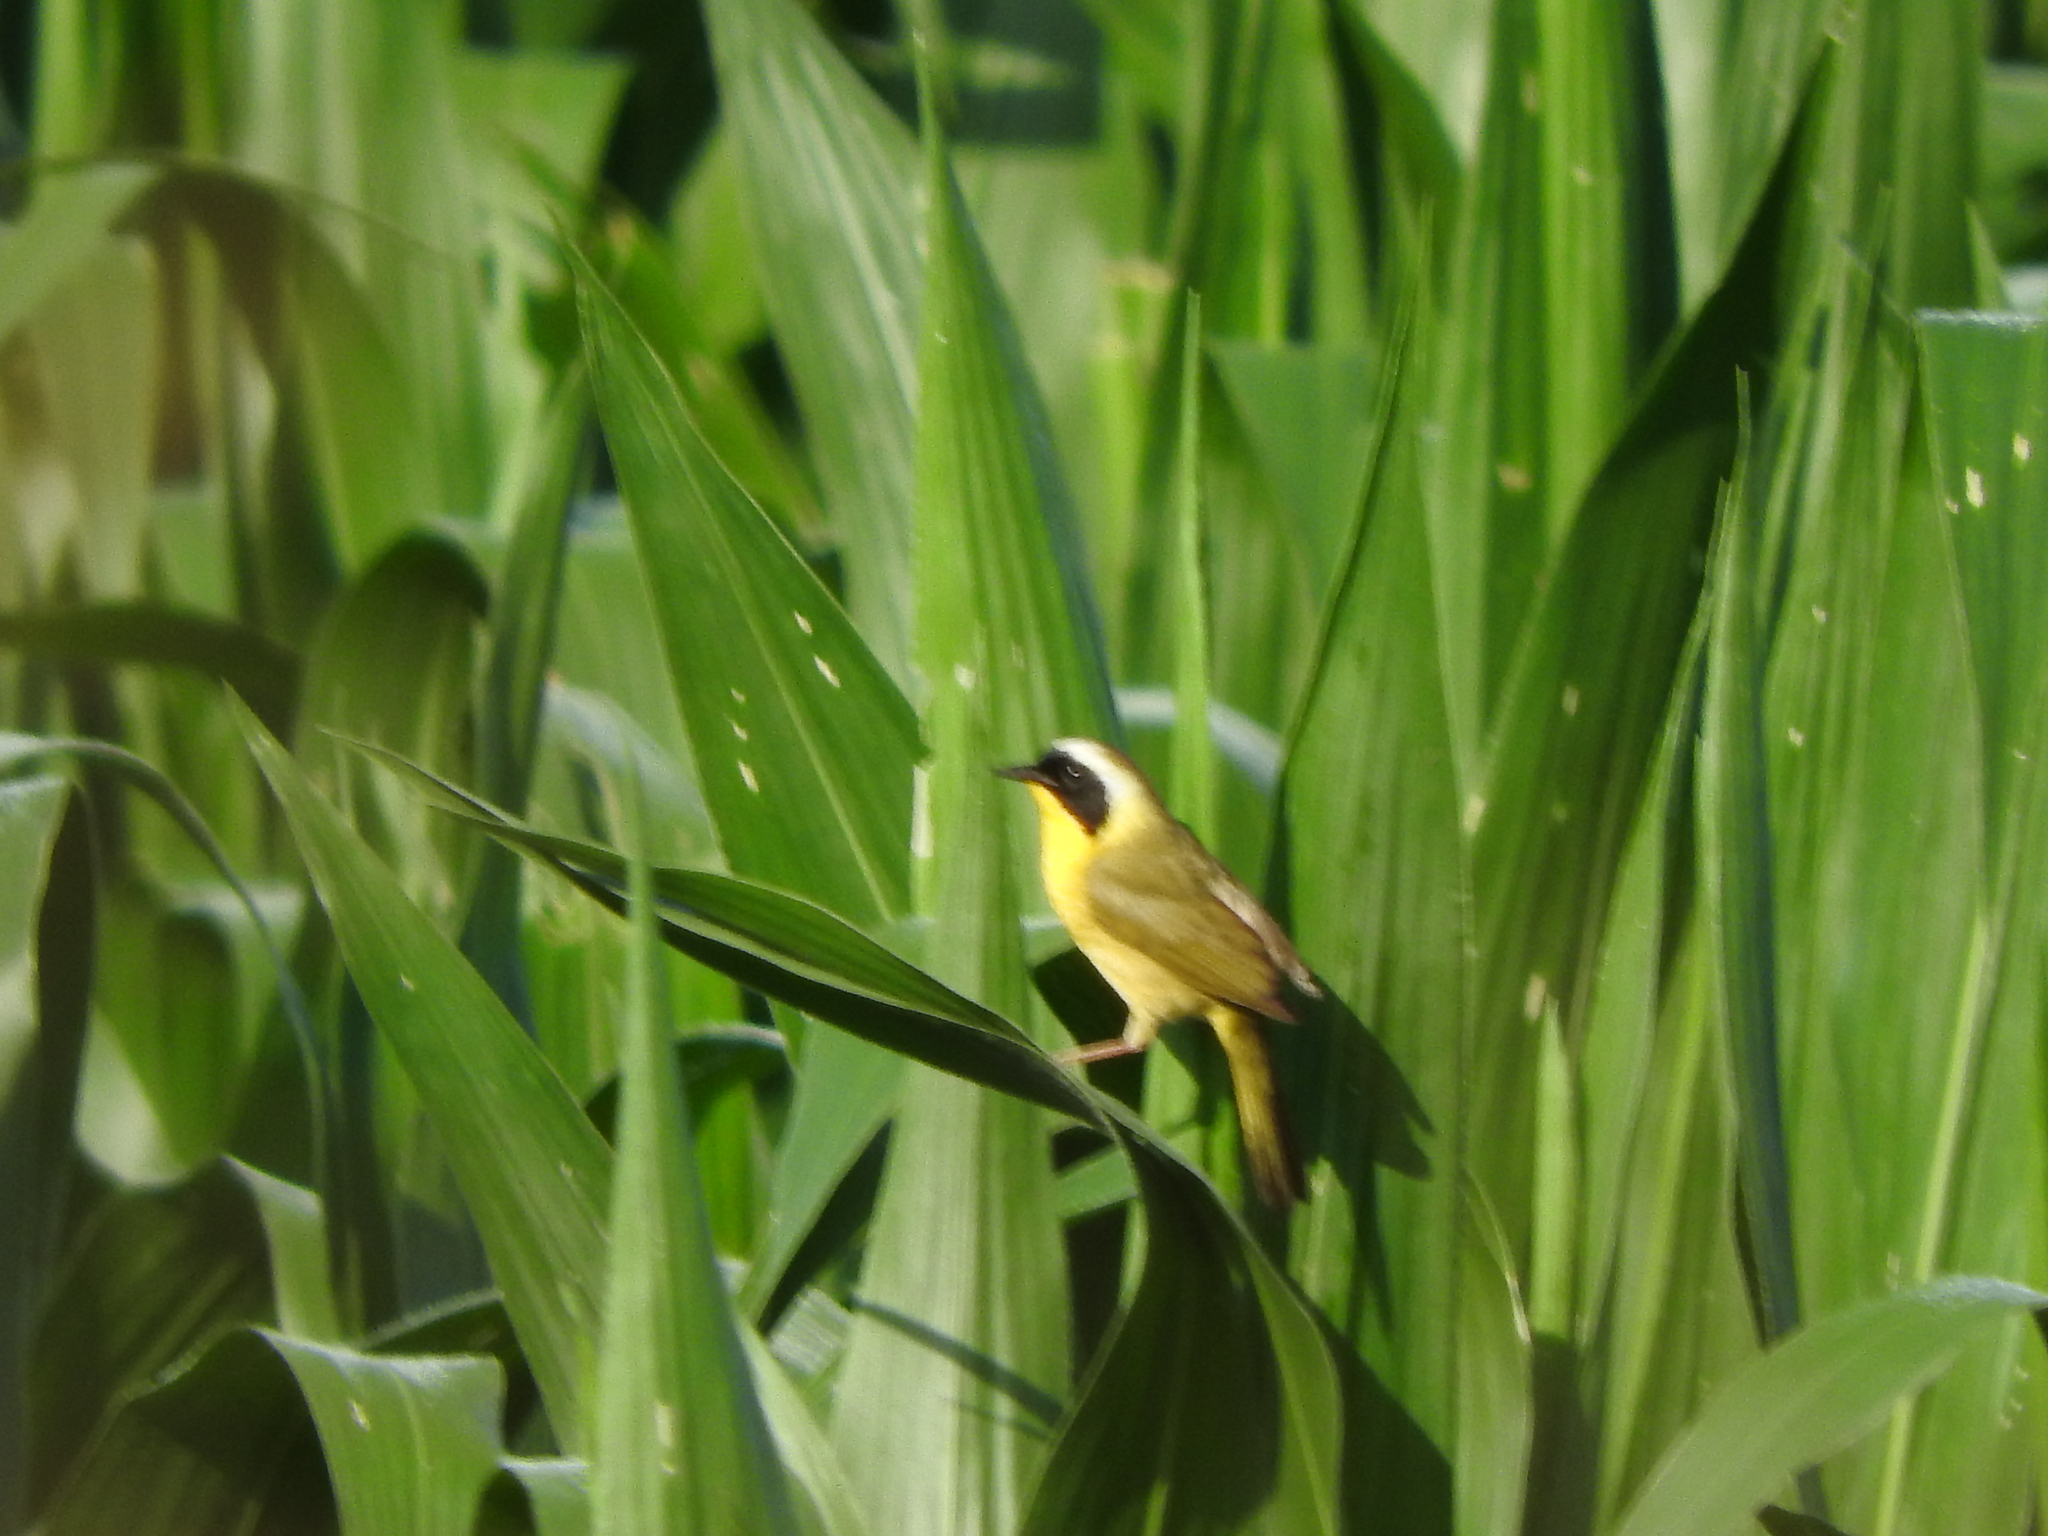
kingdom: Animalia
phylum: Chordata
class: Aves
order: Passeriformes
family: Parulidae
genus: Geothlypis
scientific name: Geothlypis trichas
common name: Common yellowthroat
